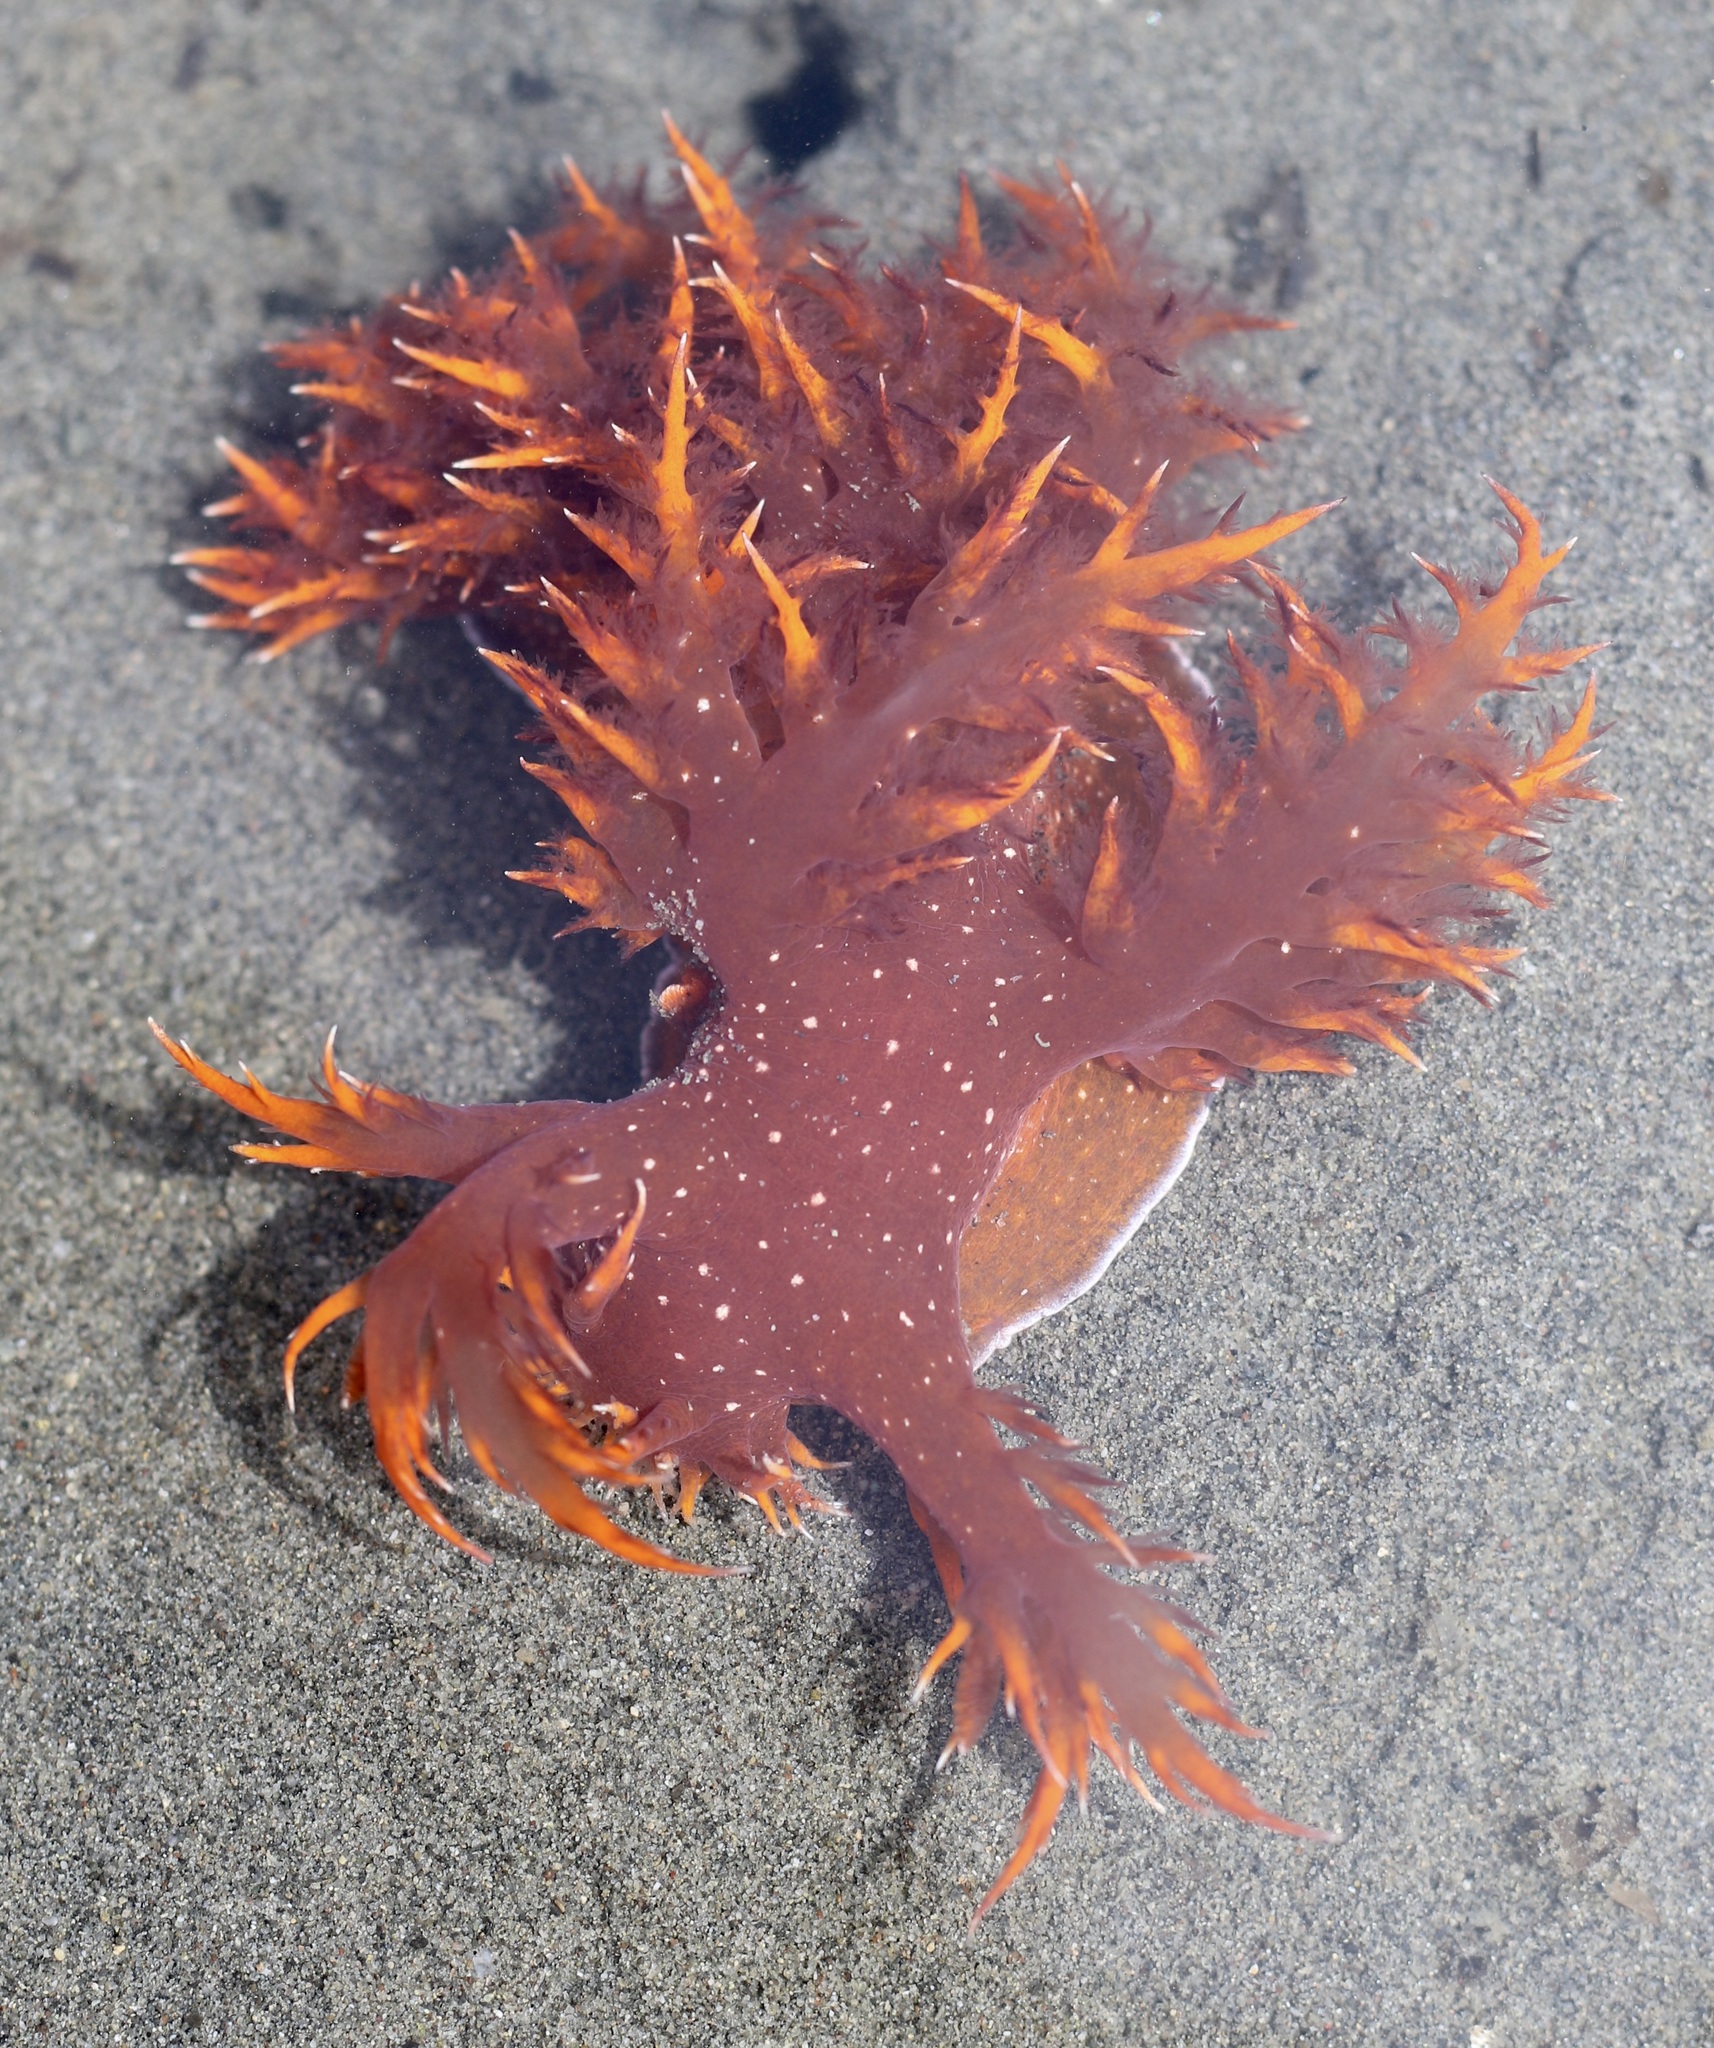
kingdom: Animalia
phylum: Mollusca
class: Gastropoda
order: Nudibranchia
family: Dendronotidae
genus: Dendronotus
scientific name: Dendronotus iris
